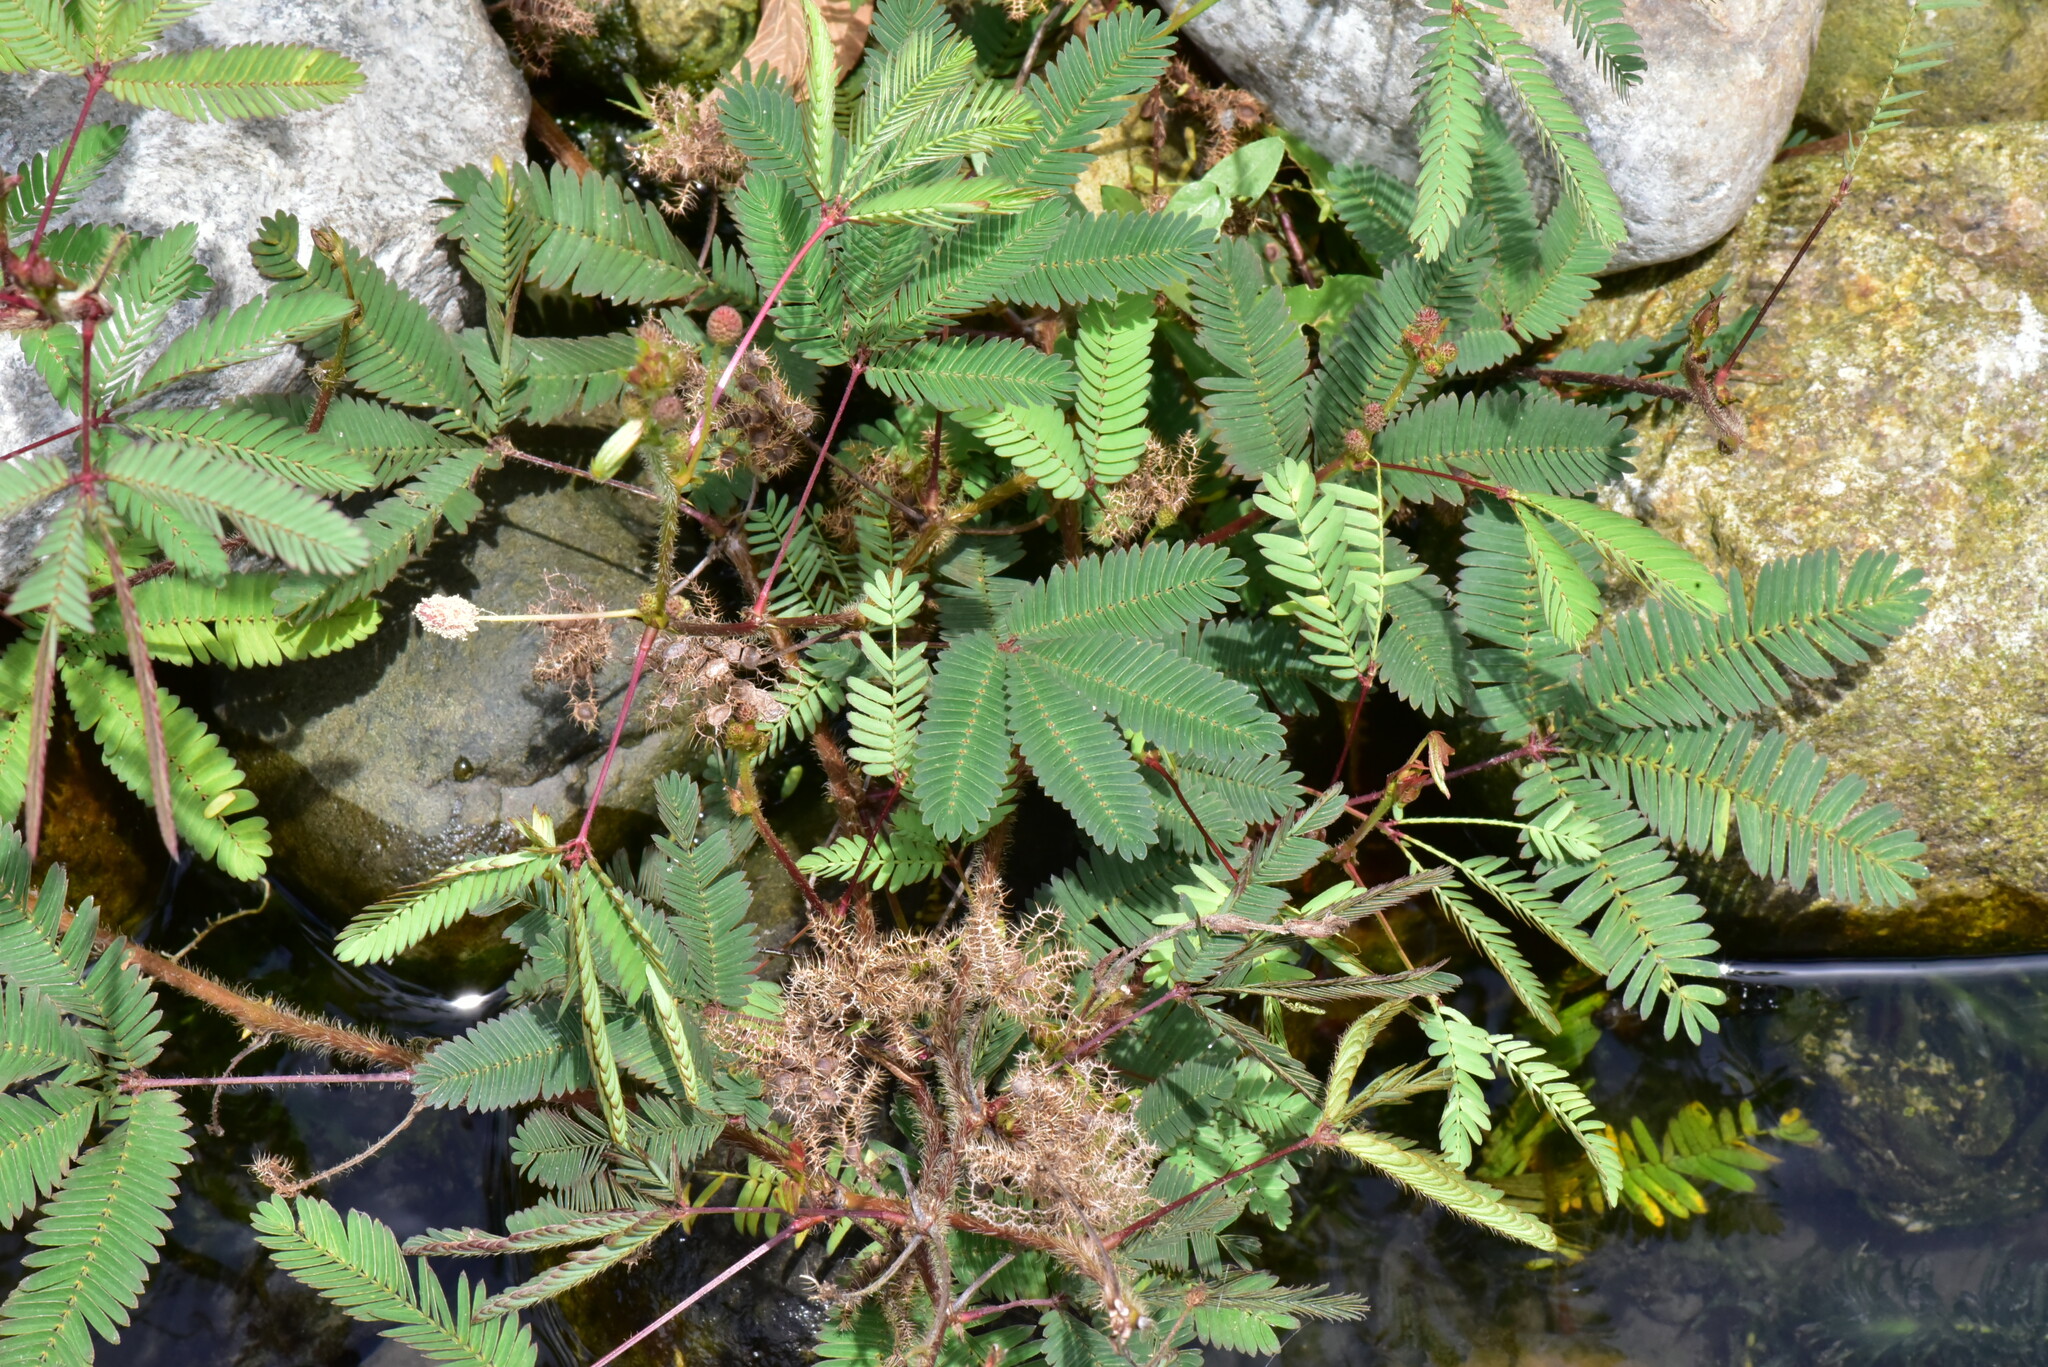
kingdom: Plantae
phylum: Tracheophyta
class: Magnoliopsida
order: Fabales
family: Fabaceae
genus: Mimosa
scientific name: Mimosa pudica
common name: Sensitive plant
